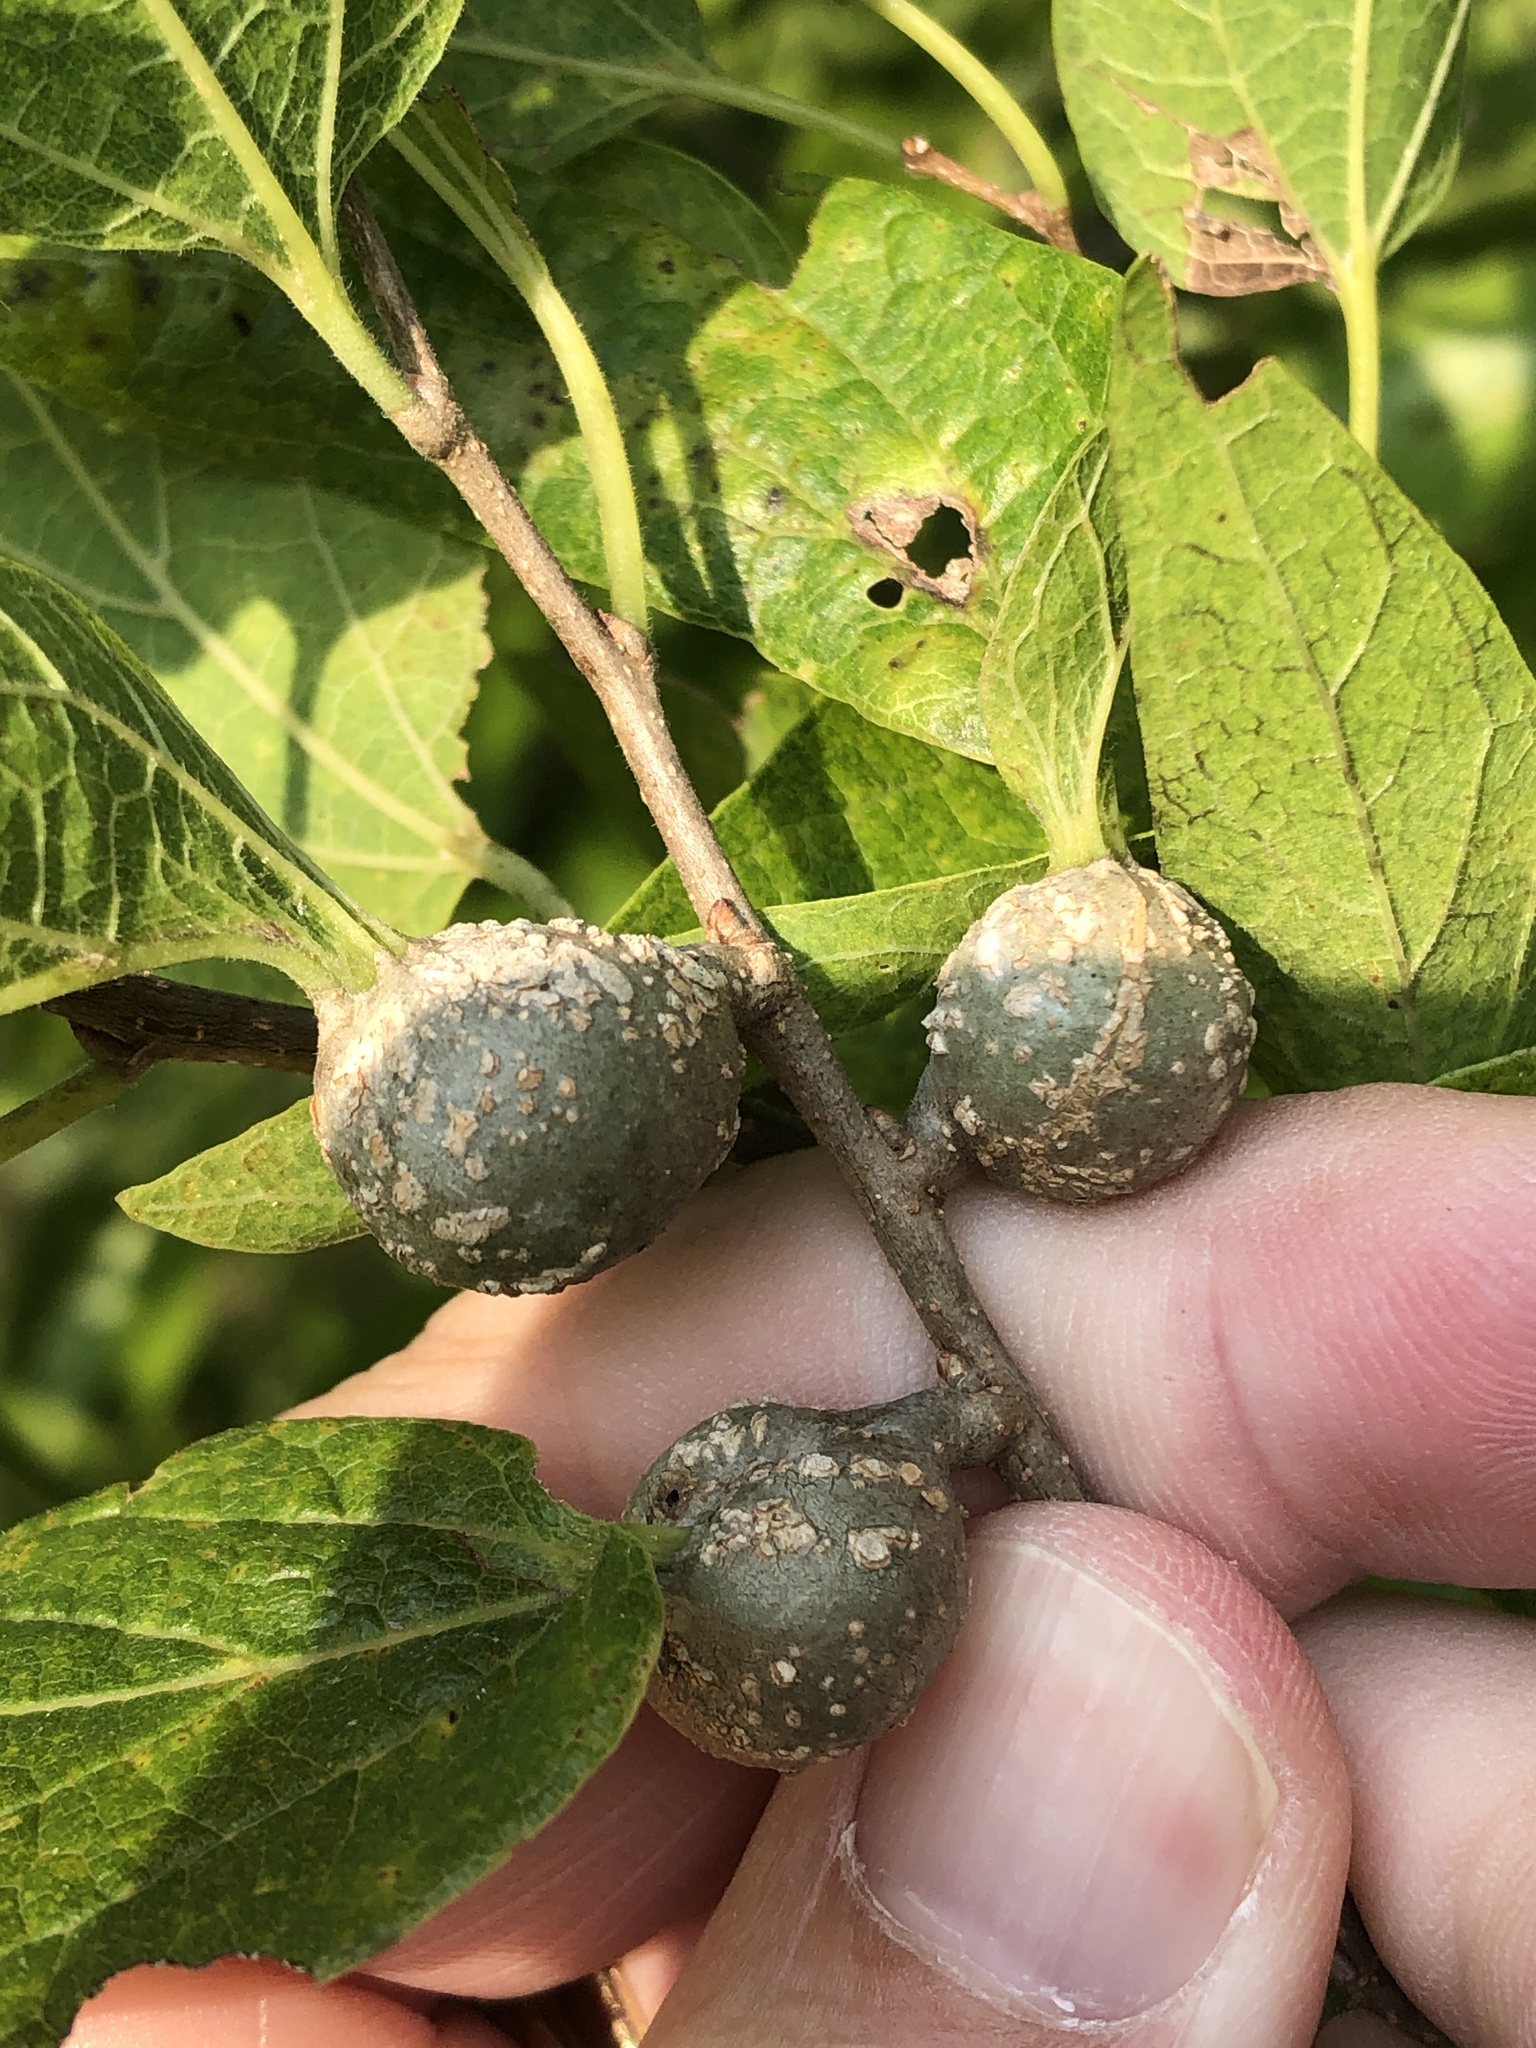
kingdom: Animalia
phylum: Arthropoda
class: Insecta
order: Hemiptera
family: Aphalaridae
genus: Pachypsylla
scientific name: Pachypsylla venusta
